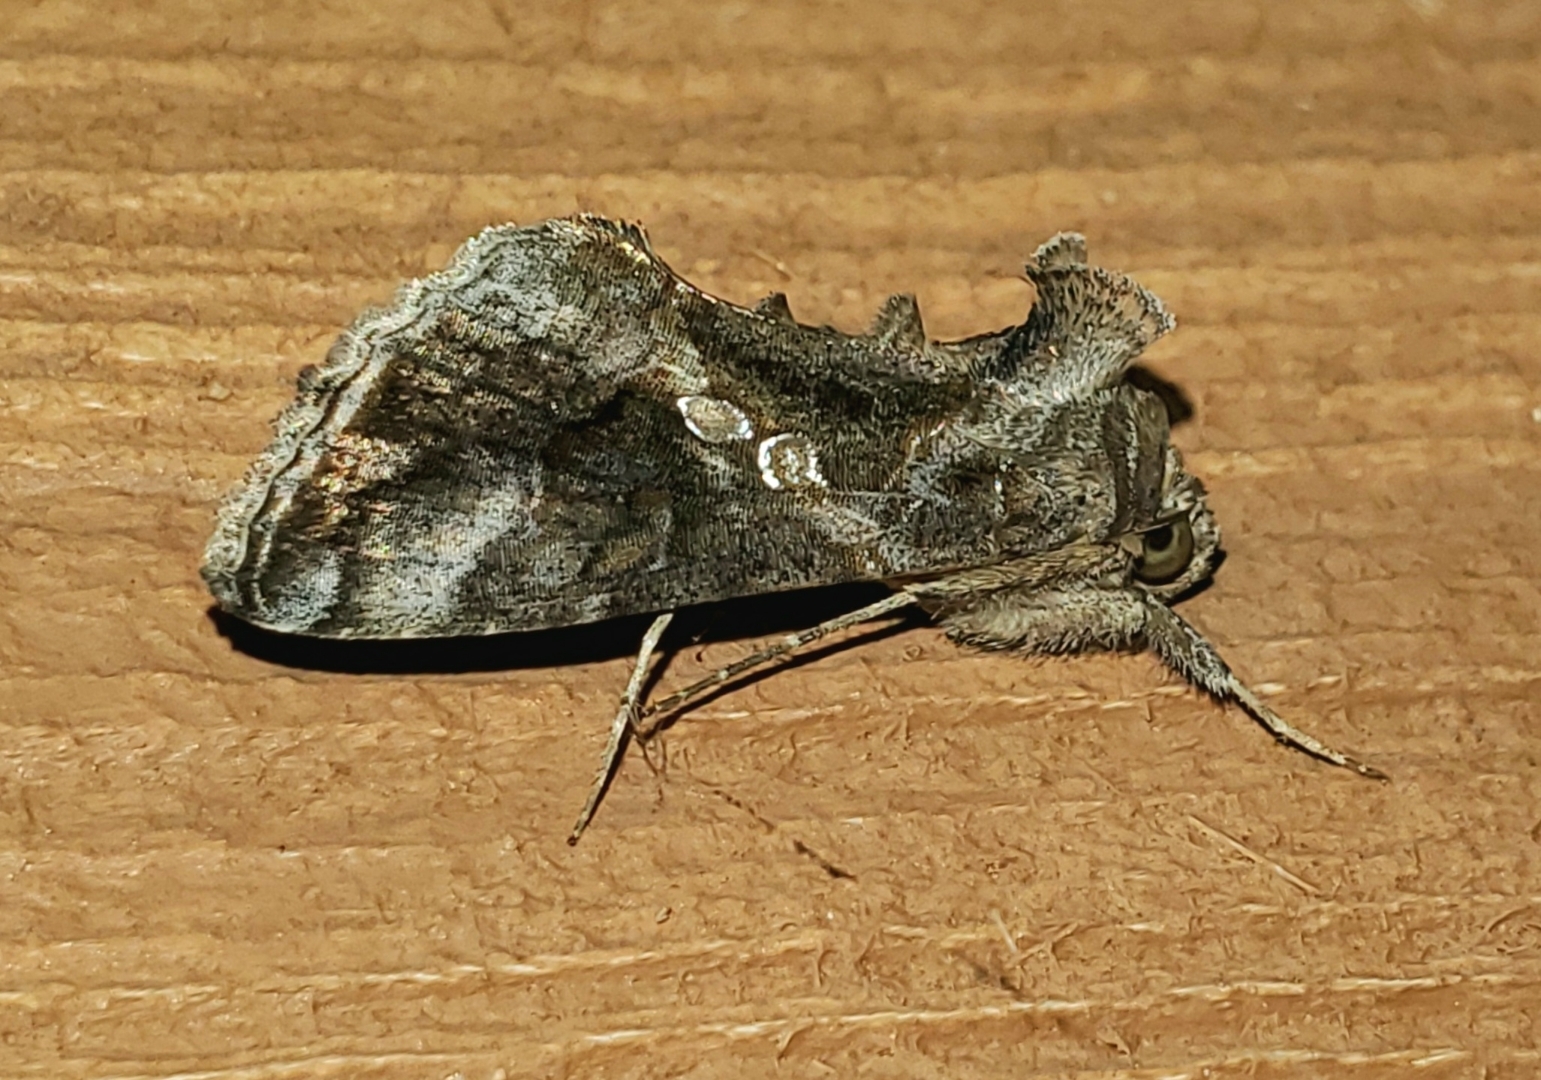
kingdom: Animalia
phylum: Arthropoda
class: Insecta
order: Lepidoptera
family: Noctuidae
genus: Chrysodeixis
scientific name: Chrysodeixis includens
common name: Cutworm moth
